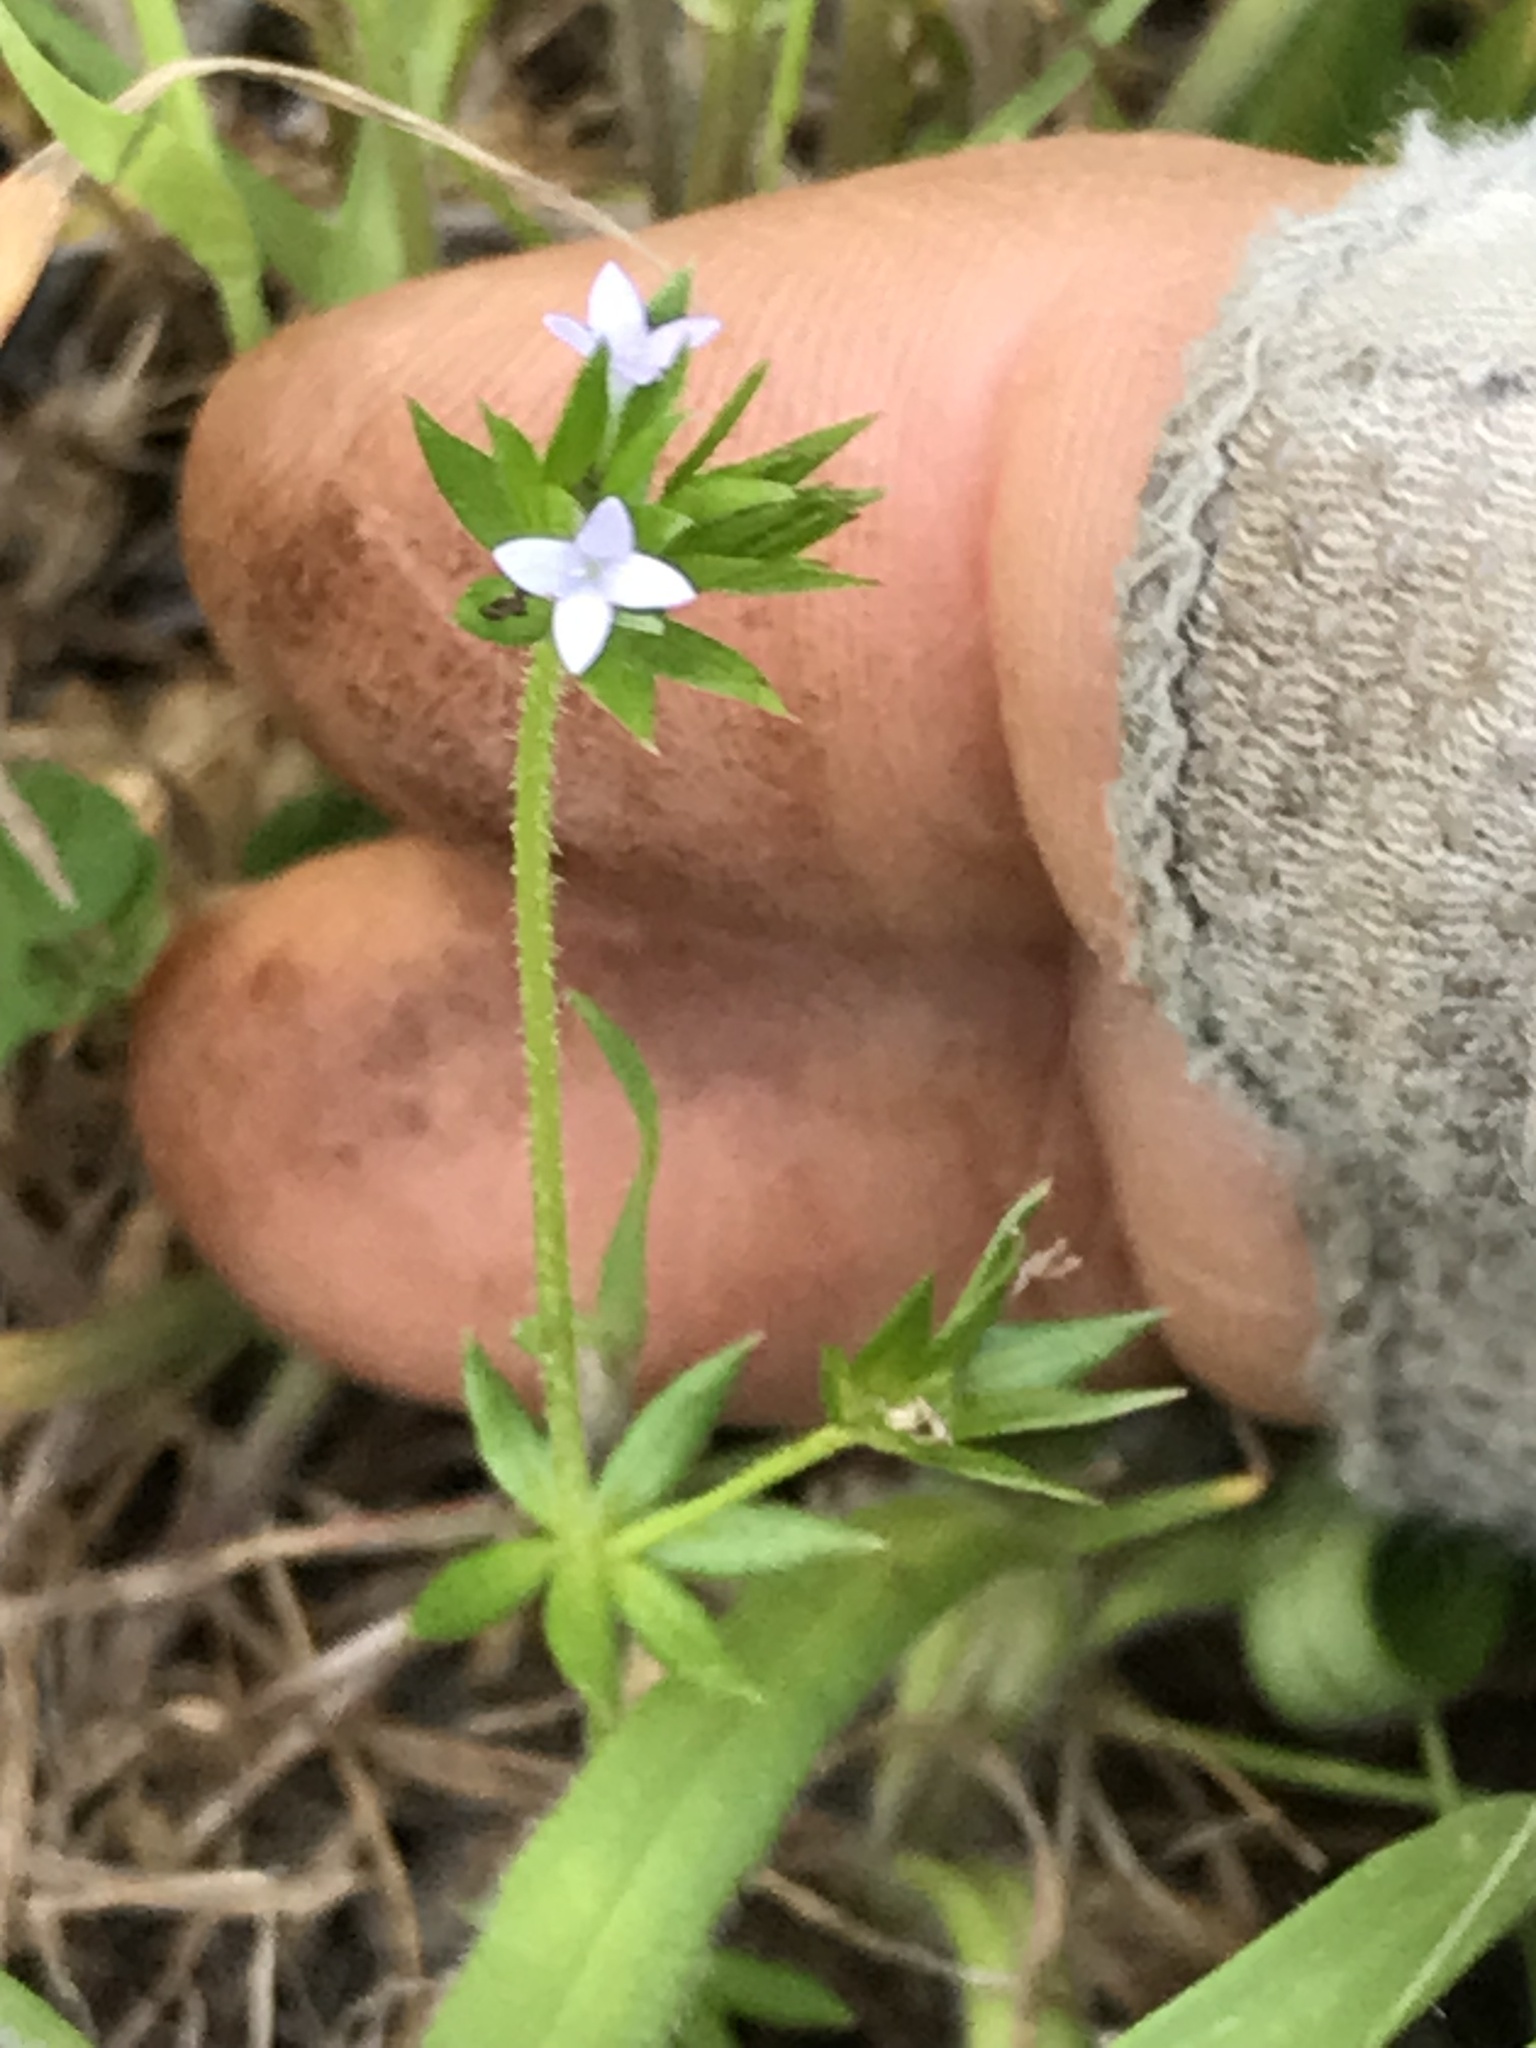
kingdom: Plantae
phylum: Tracheophyta
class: Magnoliopsida
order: Gentianales
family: Rubiaceae
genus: Sherardia
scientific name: Sherardia arvensis
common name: Field madder
